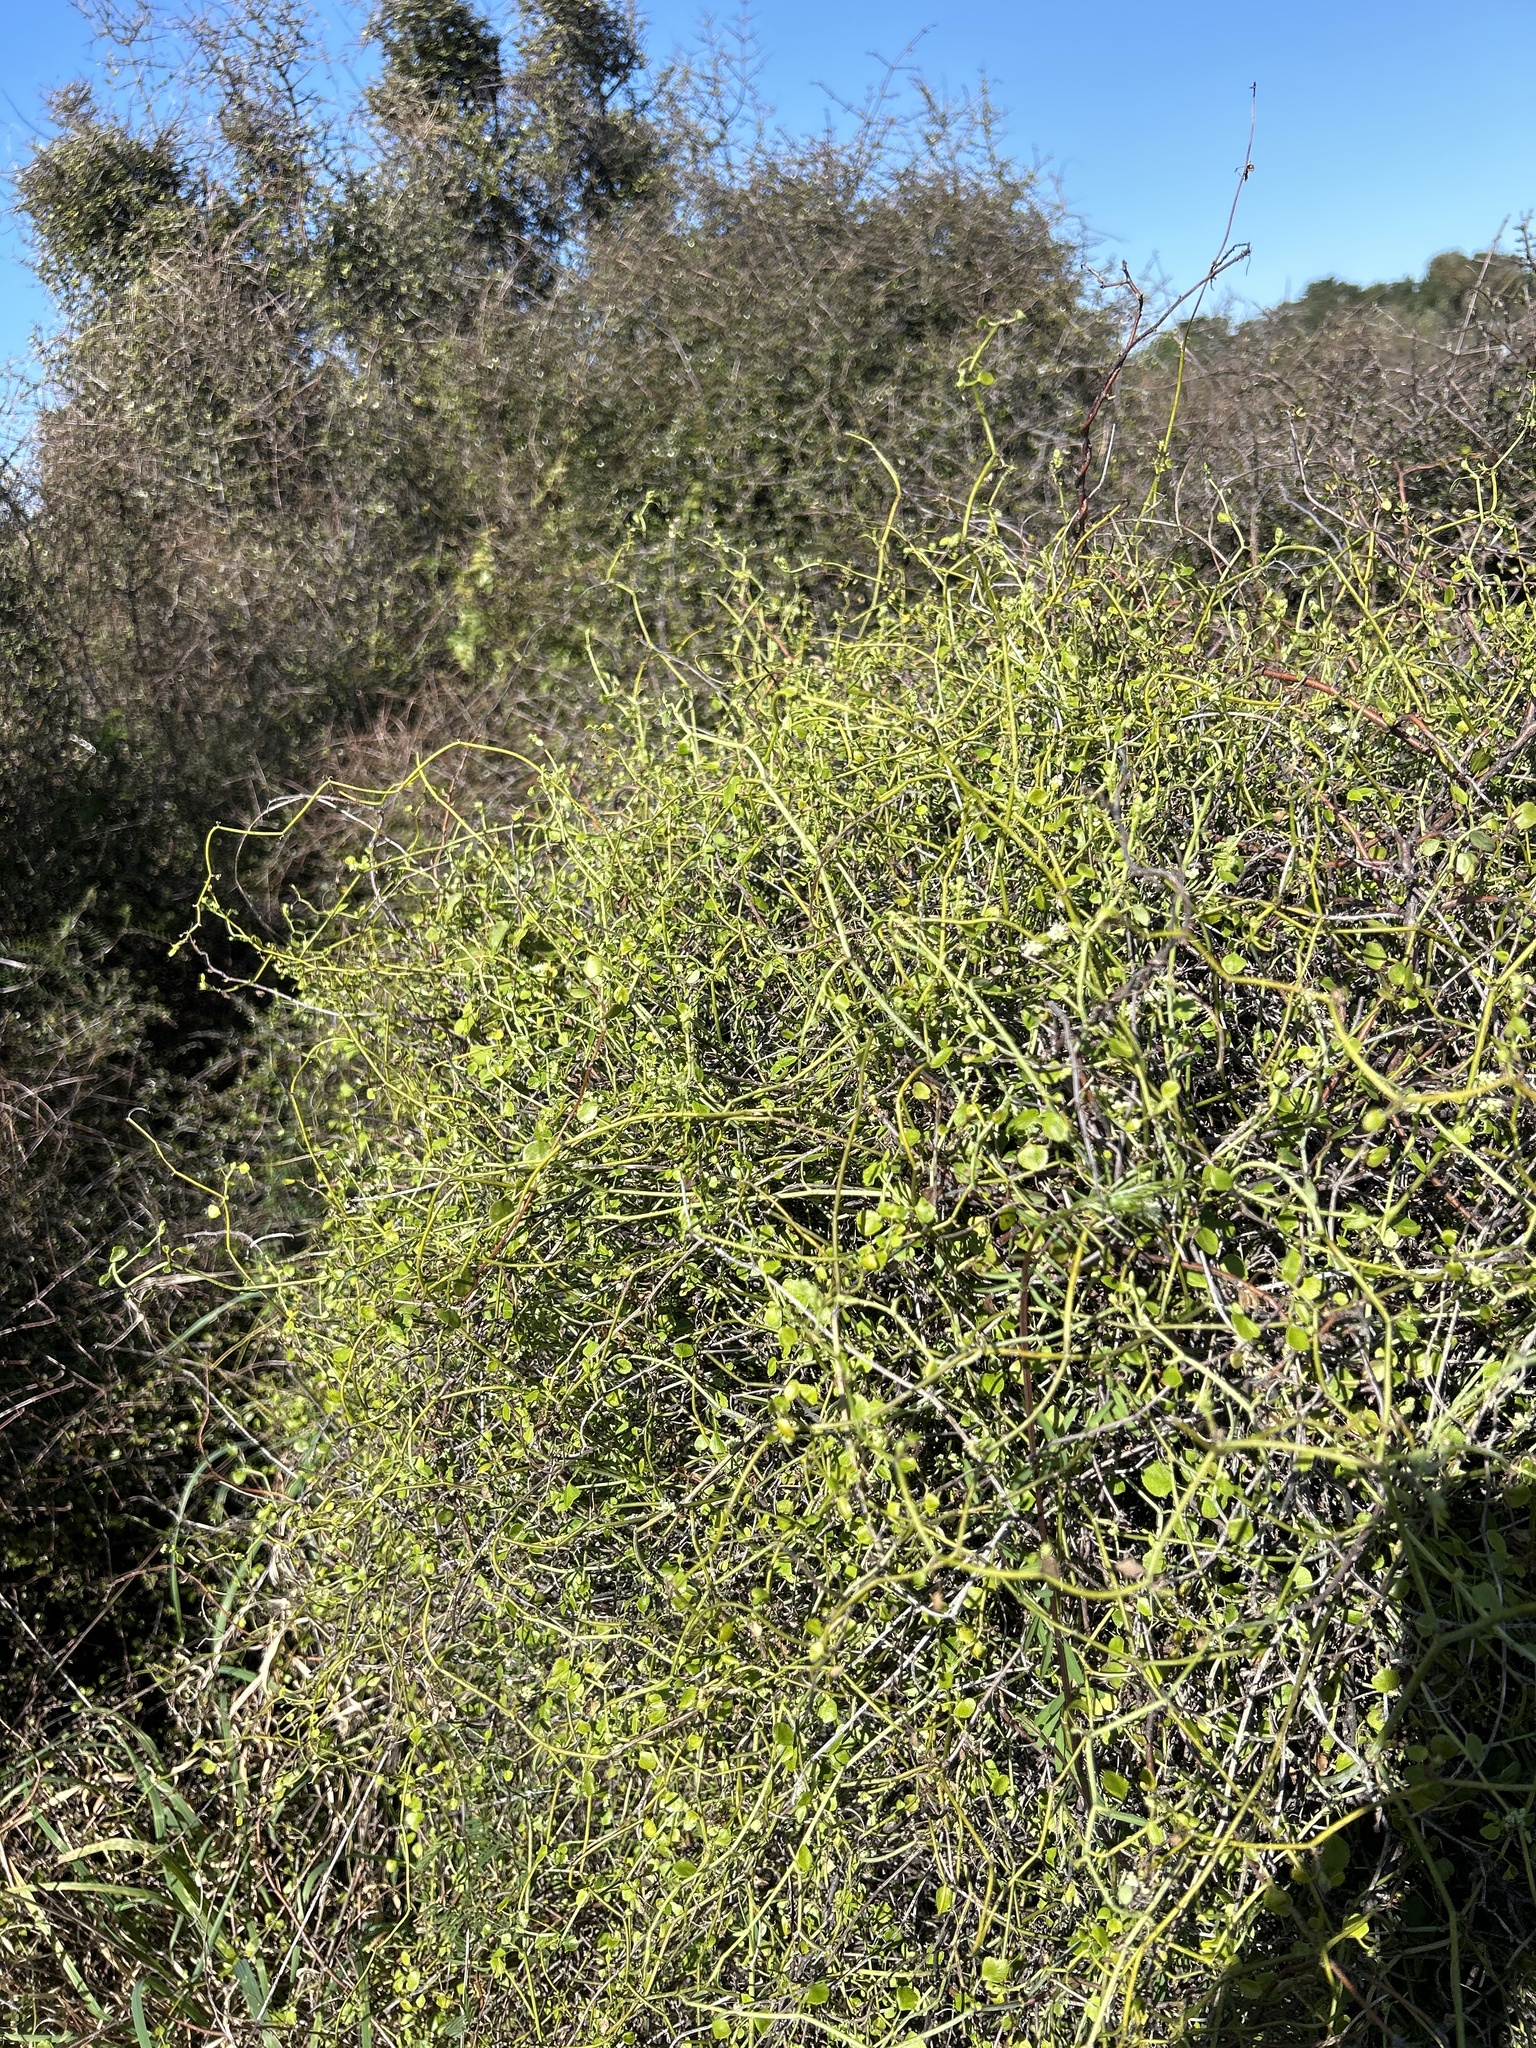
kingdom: Plantae
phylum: Tracheophyta
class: Magnoliopsida
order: Apiales
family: Apiaceae
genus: Scandia
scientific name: Scandia geniculata
